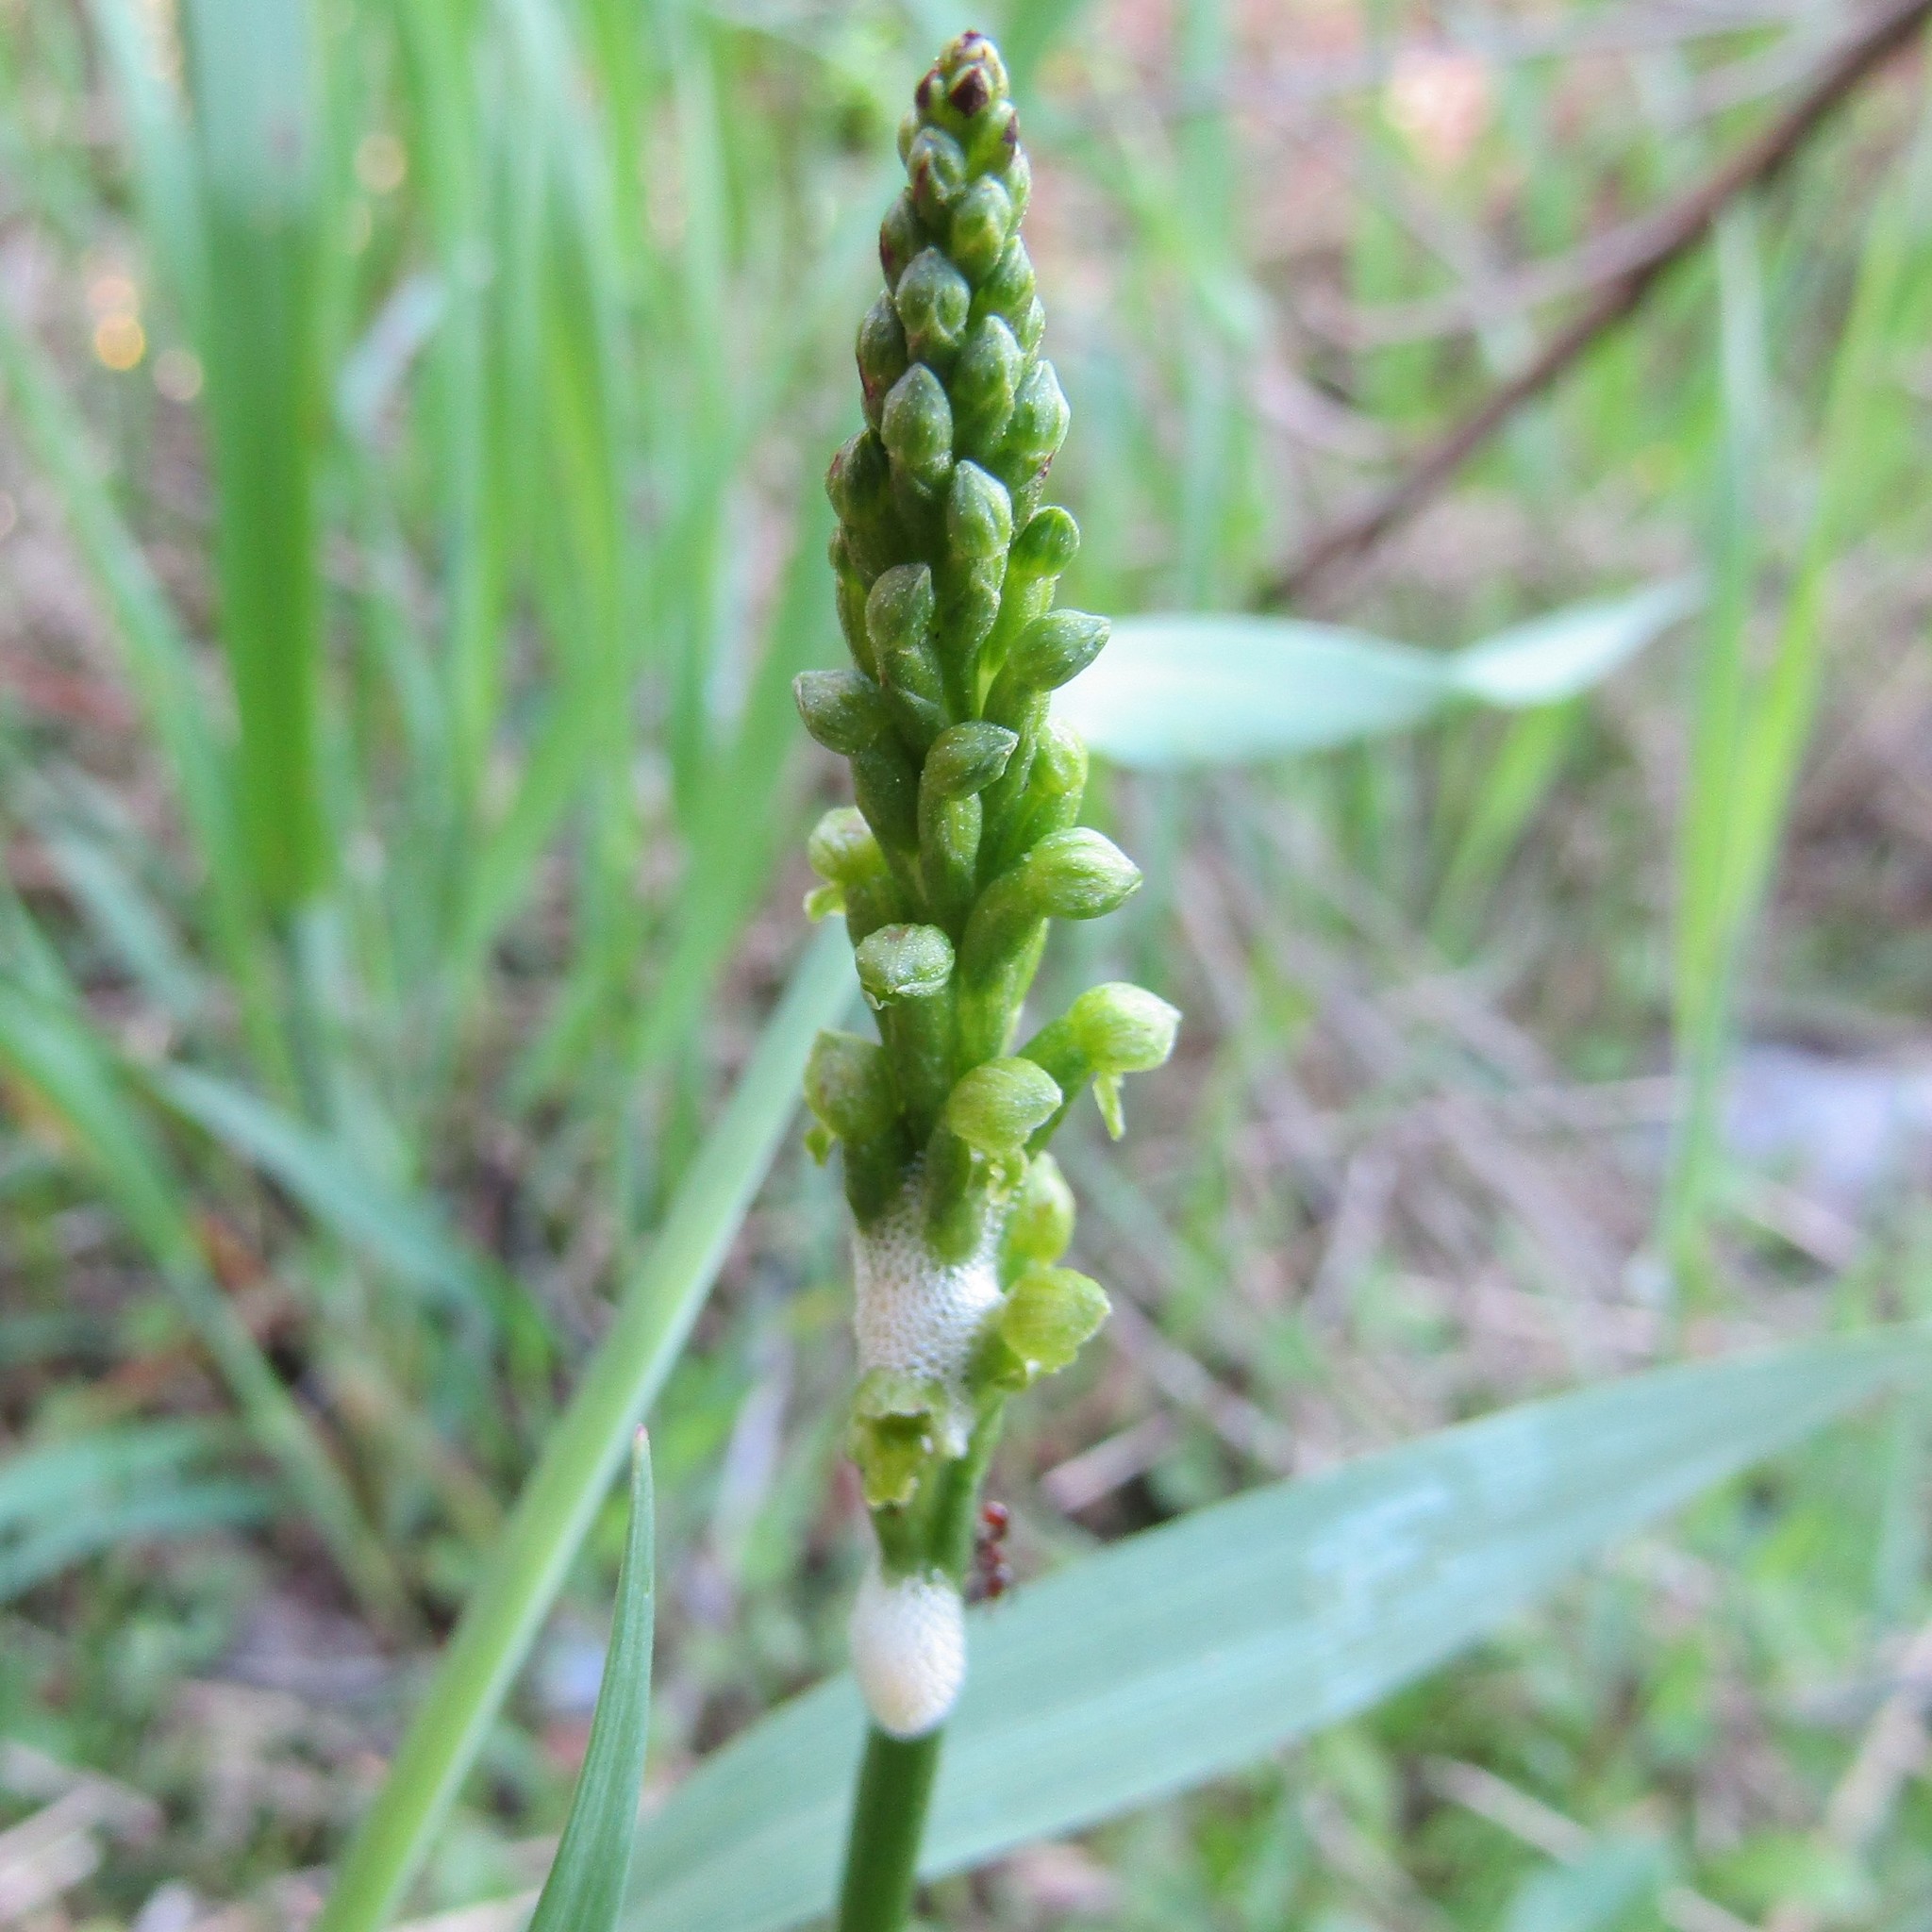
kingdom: Plantae
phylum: Tracheophyta
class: Liliopsida
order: Asparagales
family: Orchidaceae
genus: Microtis
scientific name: Microtis unifolia
